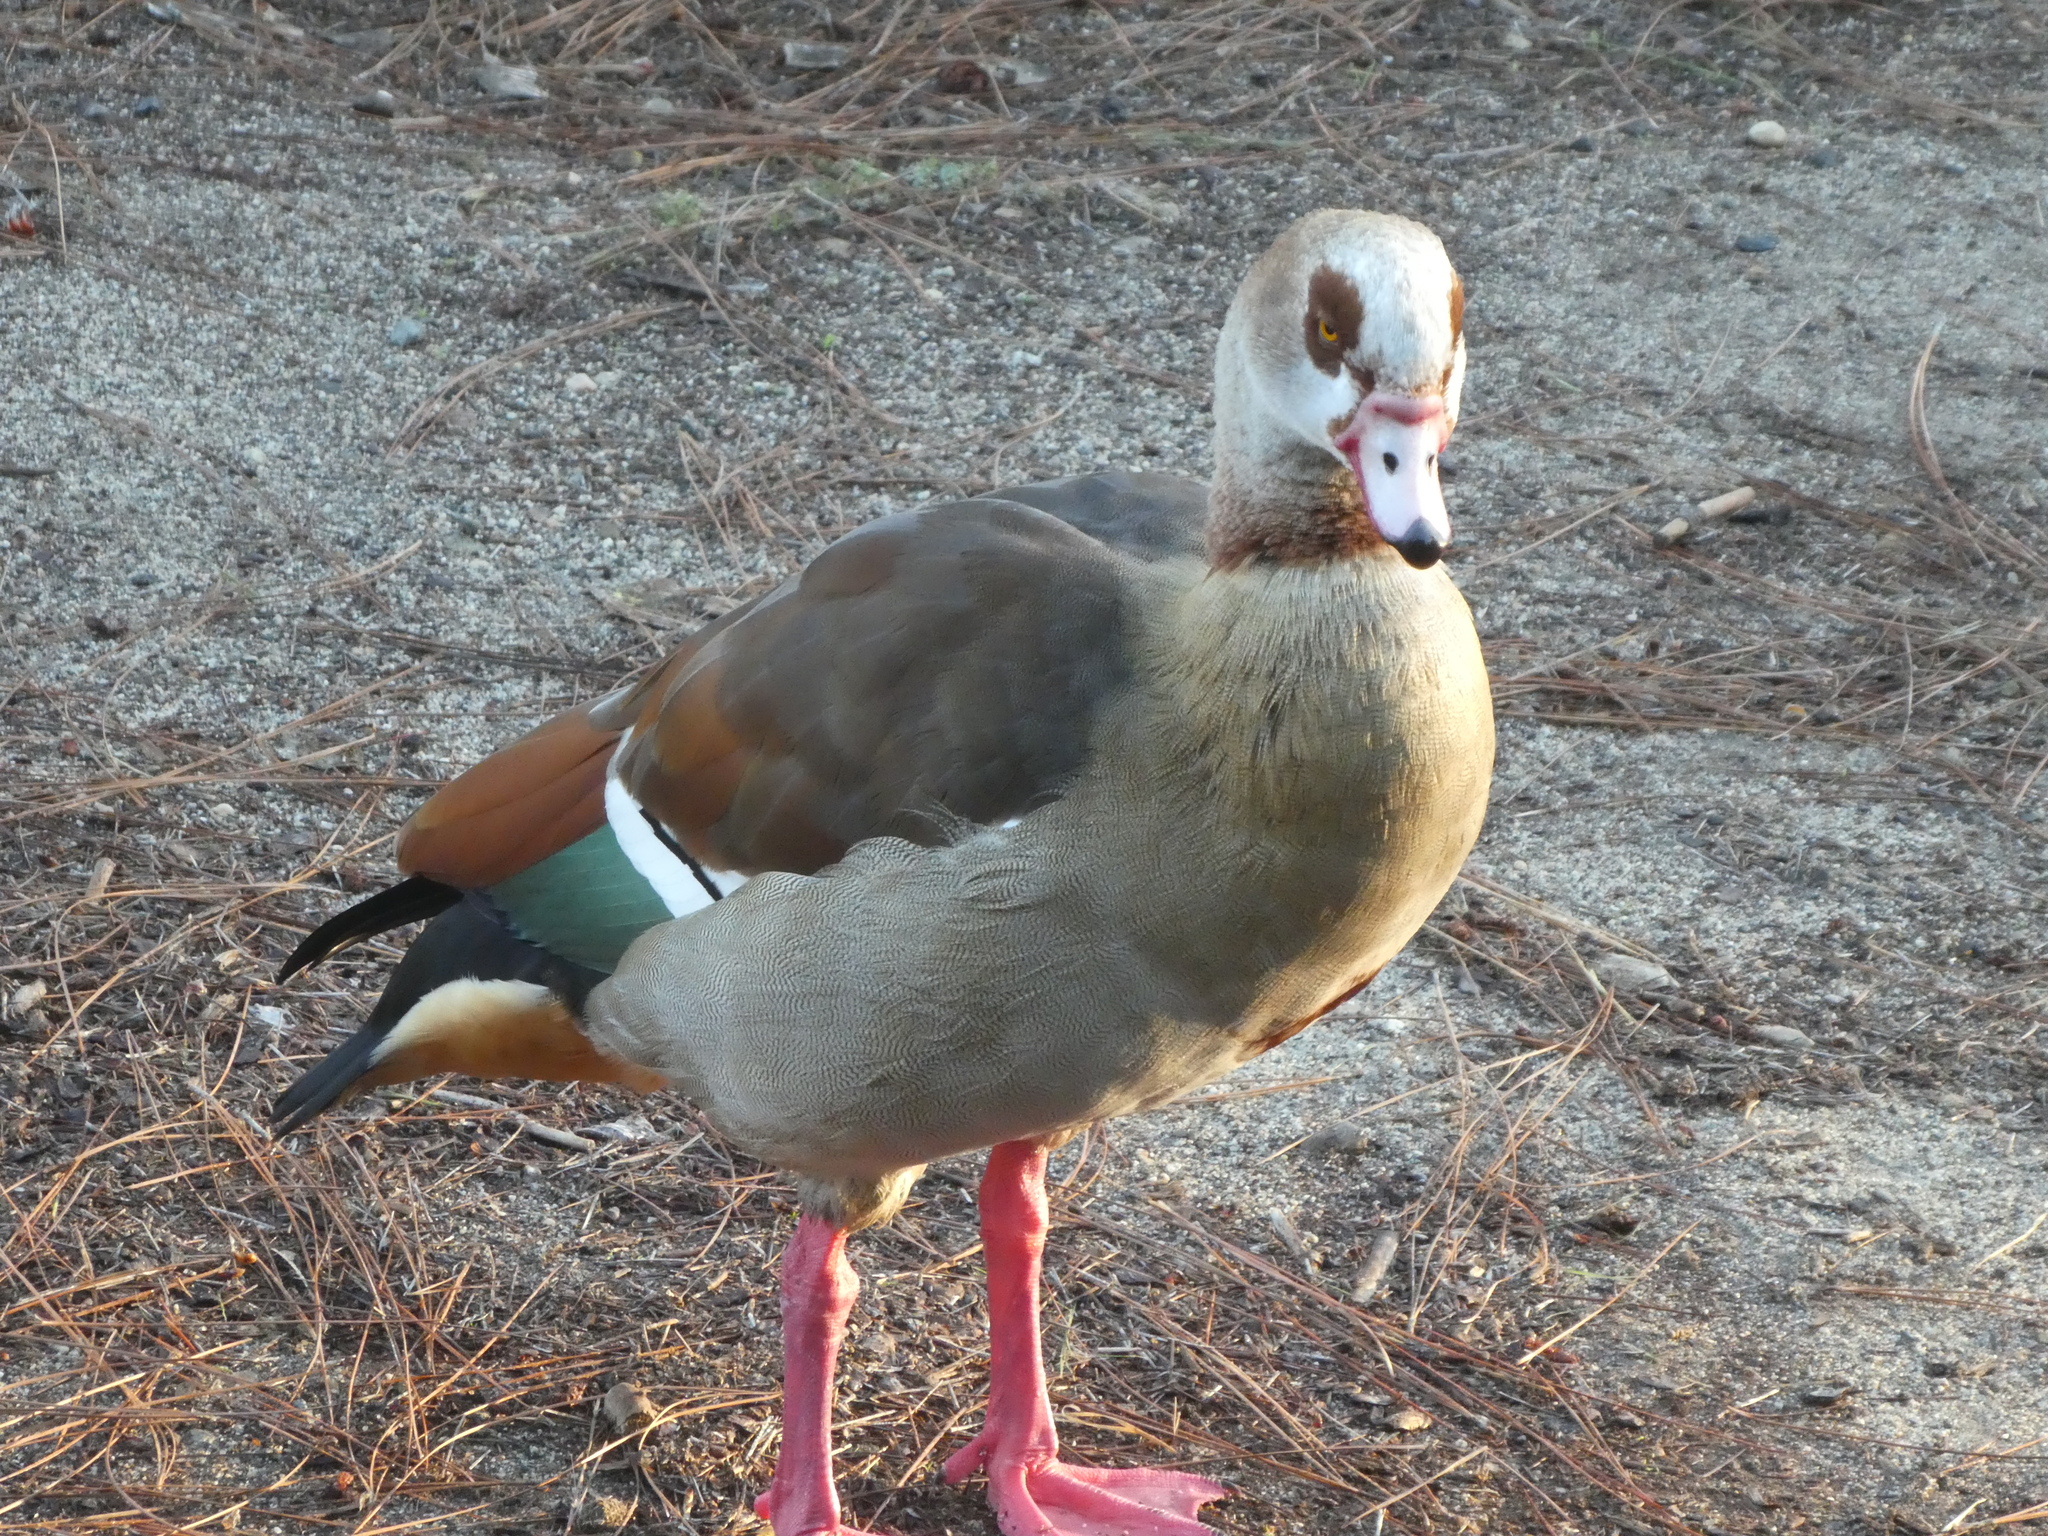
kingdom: Animalia
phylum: Chordata
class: Aves
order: Anseriformes
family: Anatidae
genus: Alopochen
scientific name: Alopochen aegyptiaca
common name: Egyptian goose
